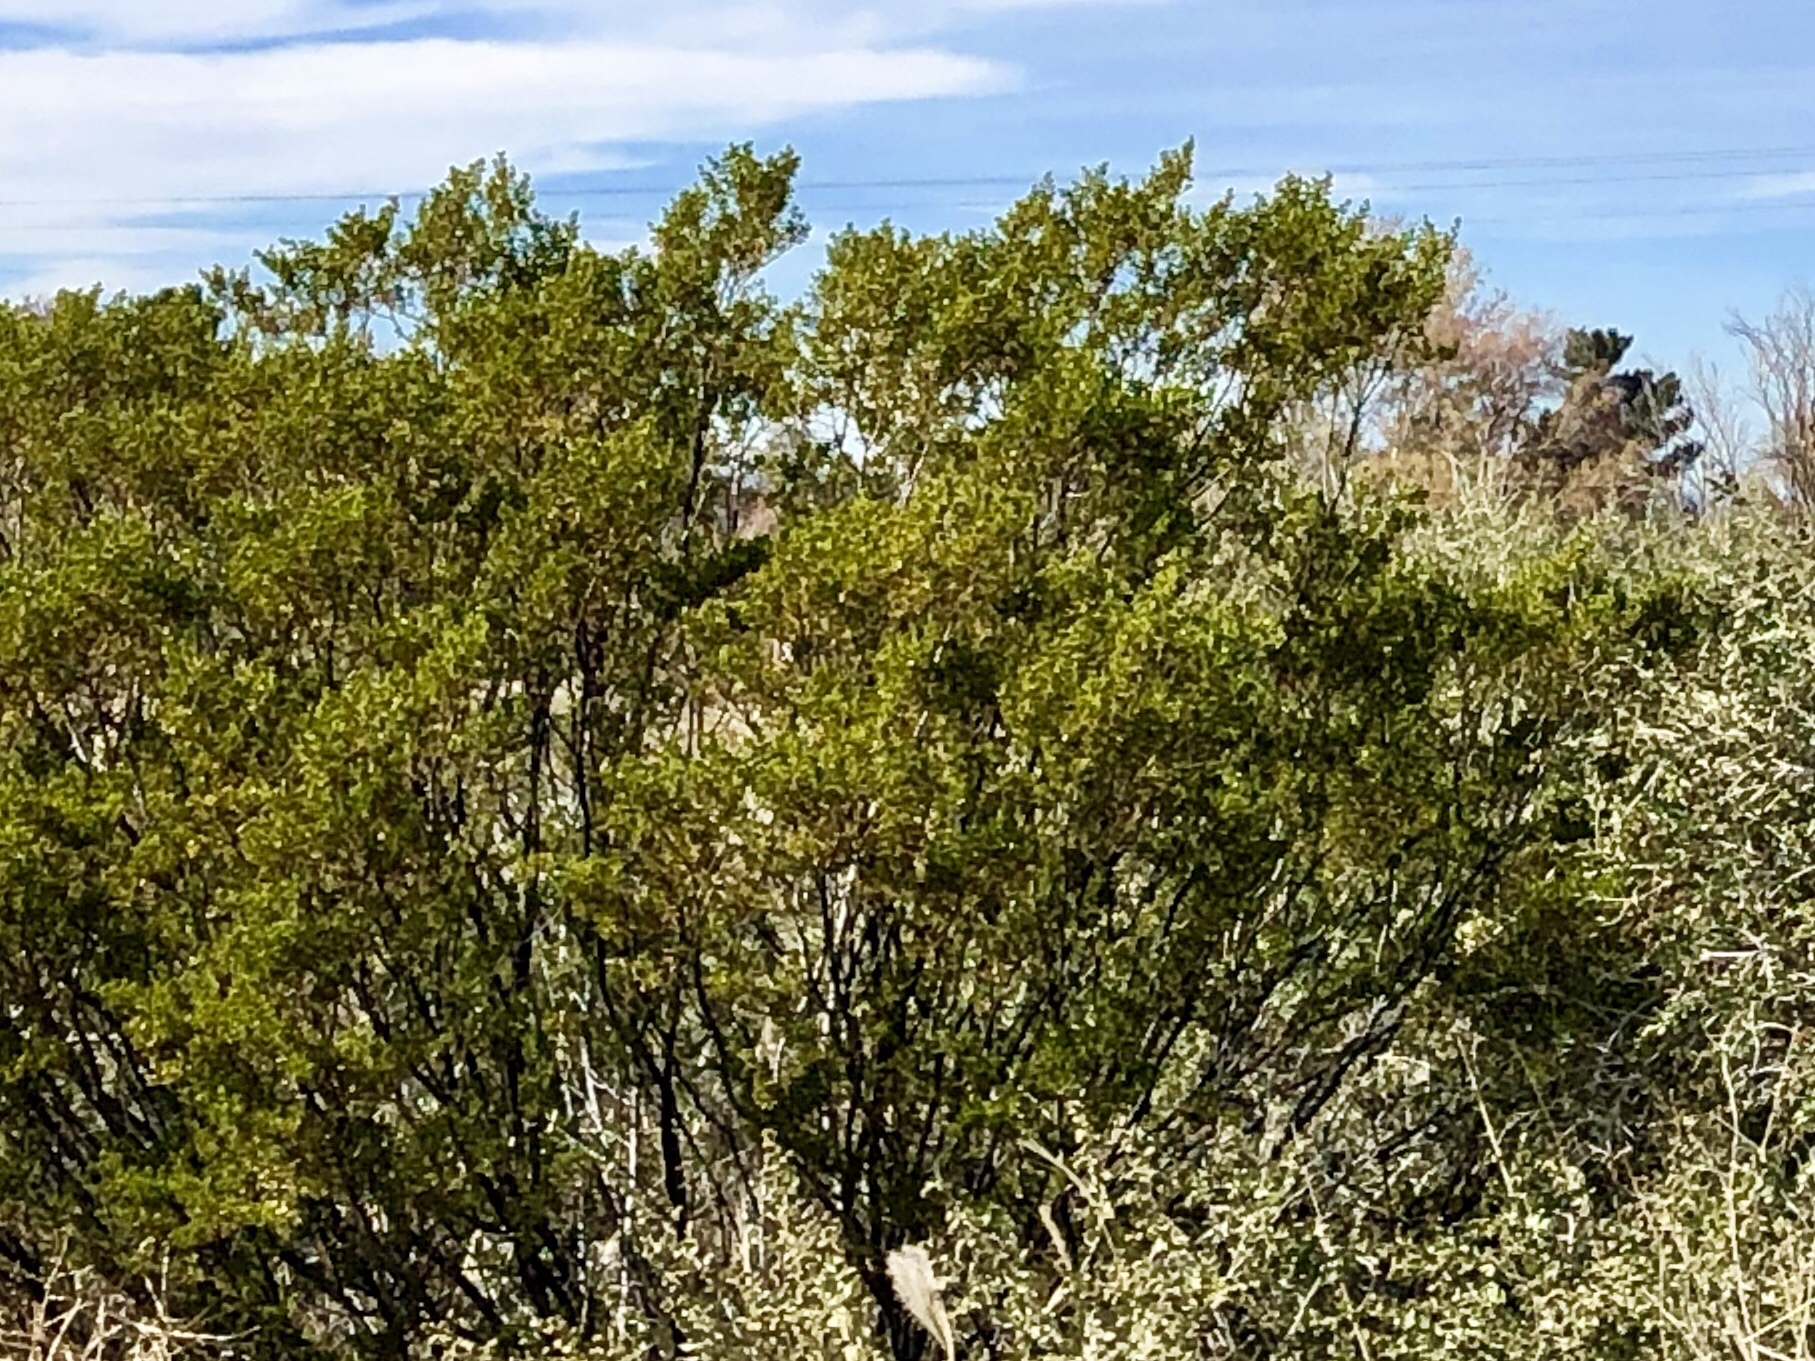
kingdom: Plantae
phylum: Tracheophyta
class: Magnoliopsida
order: Zygophyllales
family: Zygophyllaceae
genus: Larrea
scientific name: Larrea tridentata
